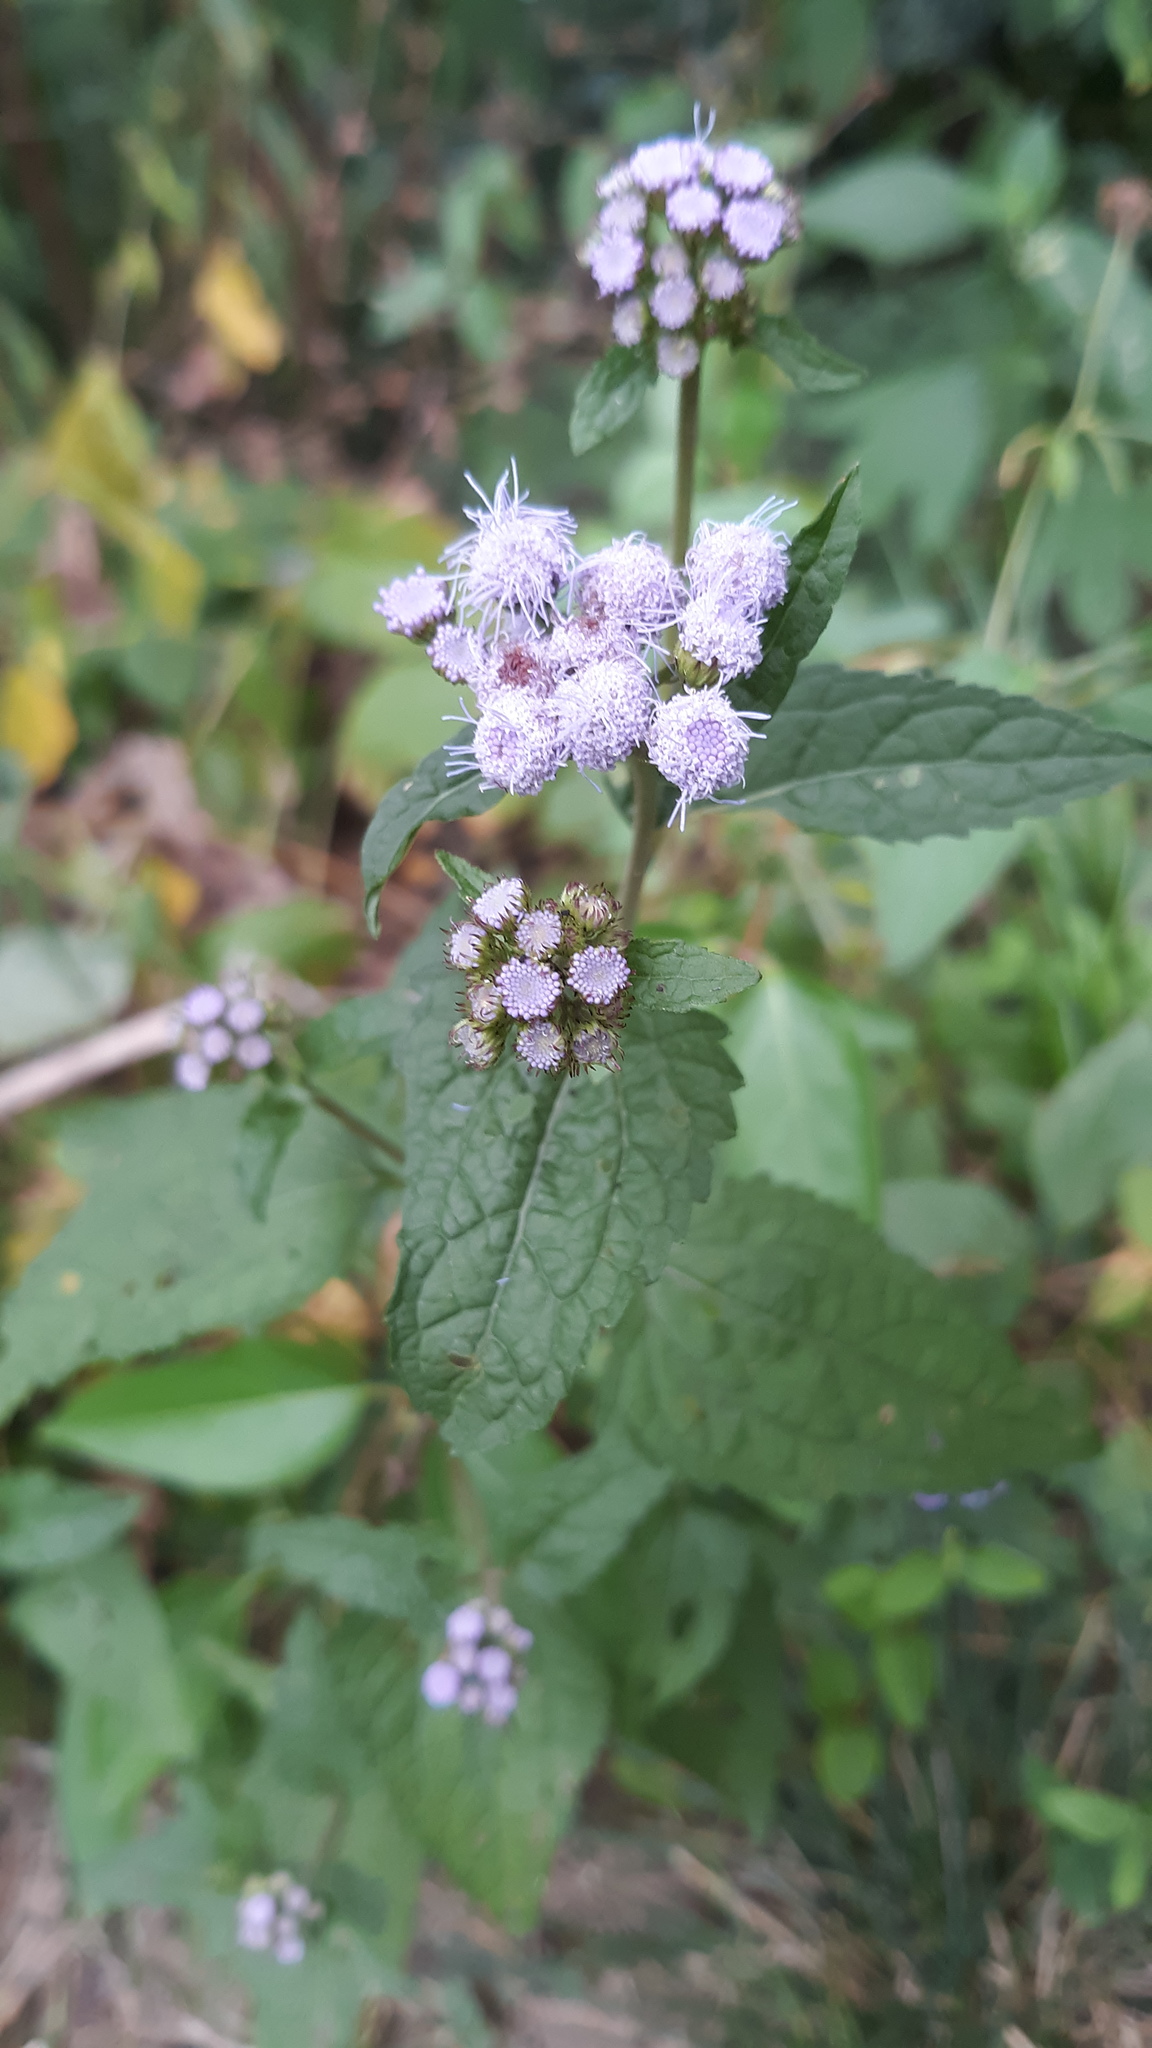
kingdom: Plantae
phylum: Tracheophyta
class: Magnoliopsida
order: Asterales
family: Asteraceae
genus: Conoclinium
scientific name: Conoclinium coelestinum
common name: Blue mistflower
